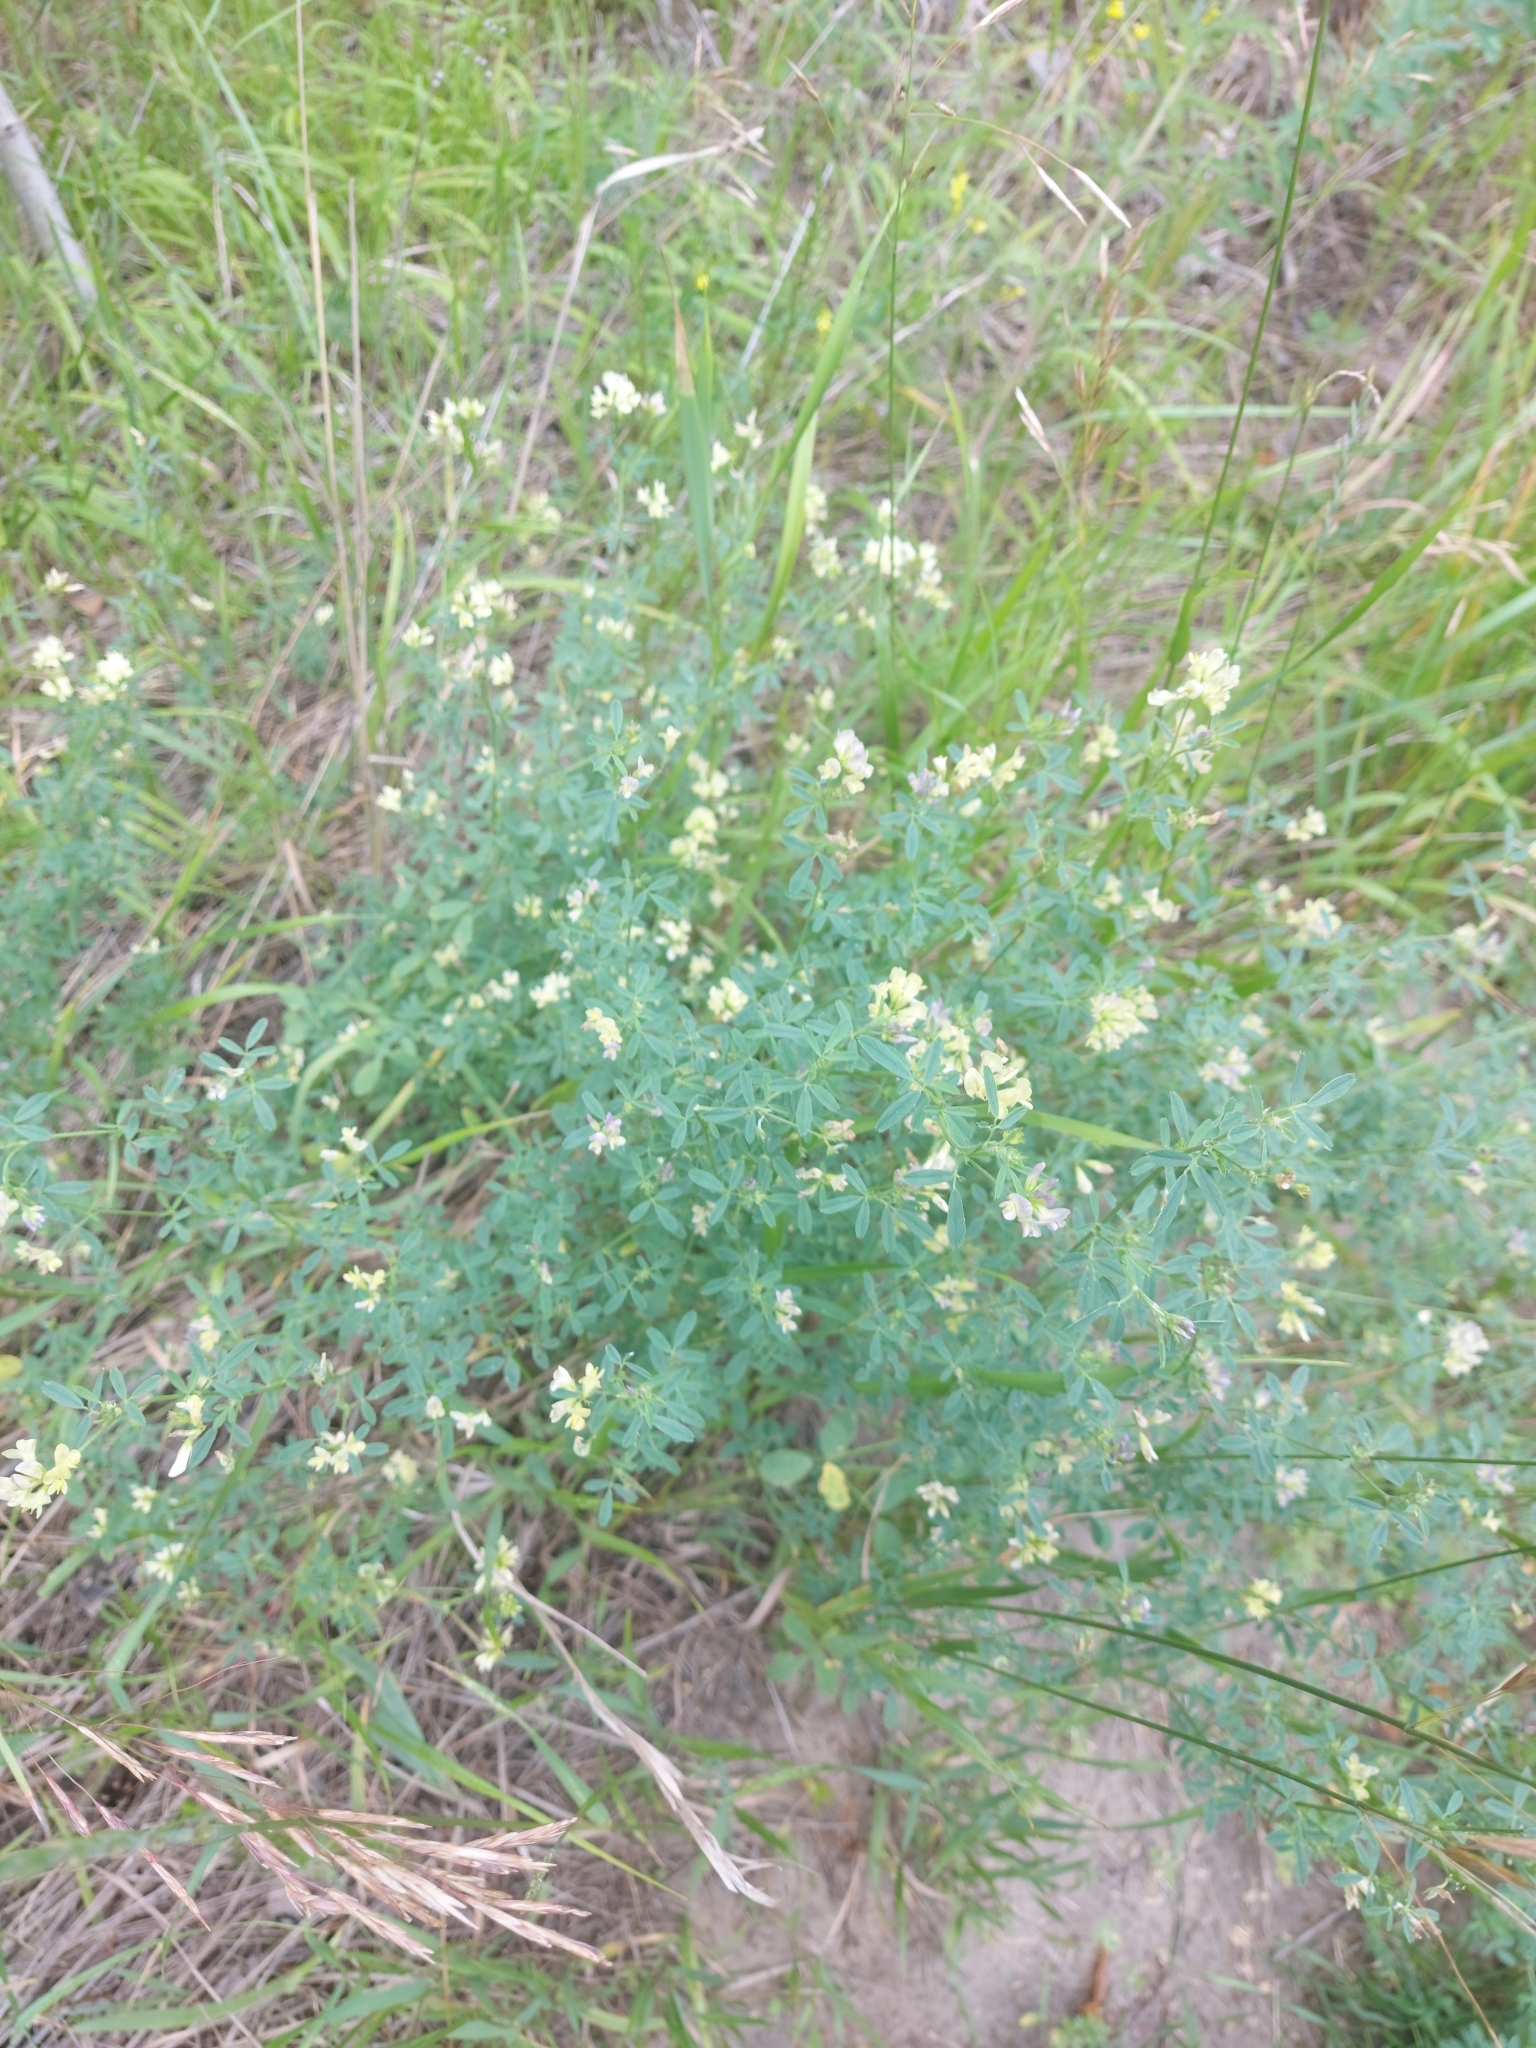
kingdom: Plantae
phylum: Tracheophyta
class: Magnoliopsida
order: Fabales
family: Fabaceae
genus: Medicago
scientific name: Medicago varia
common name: Sand lucerne
